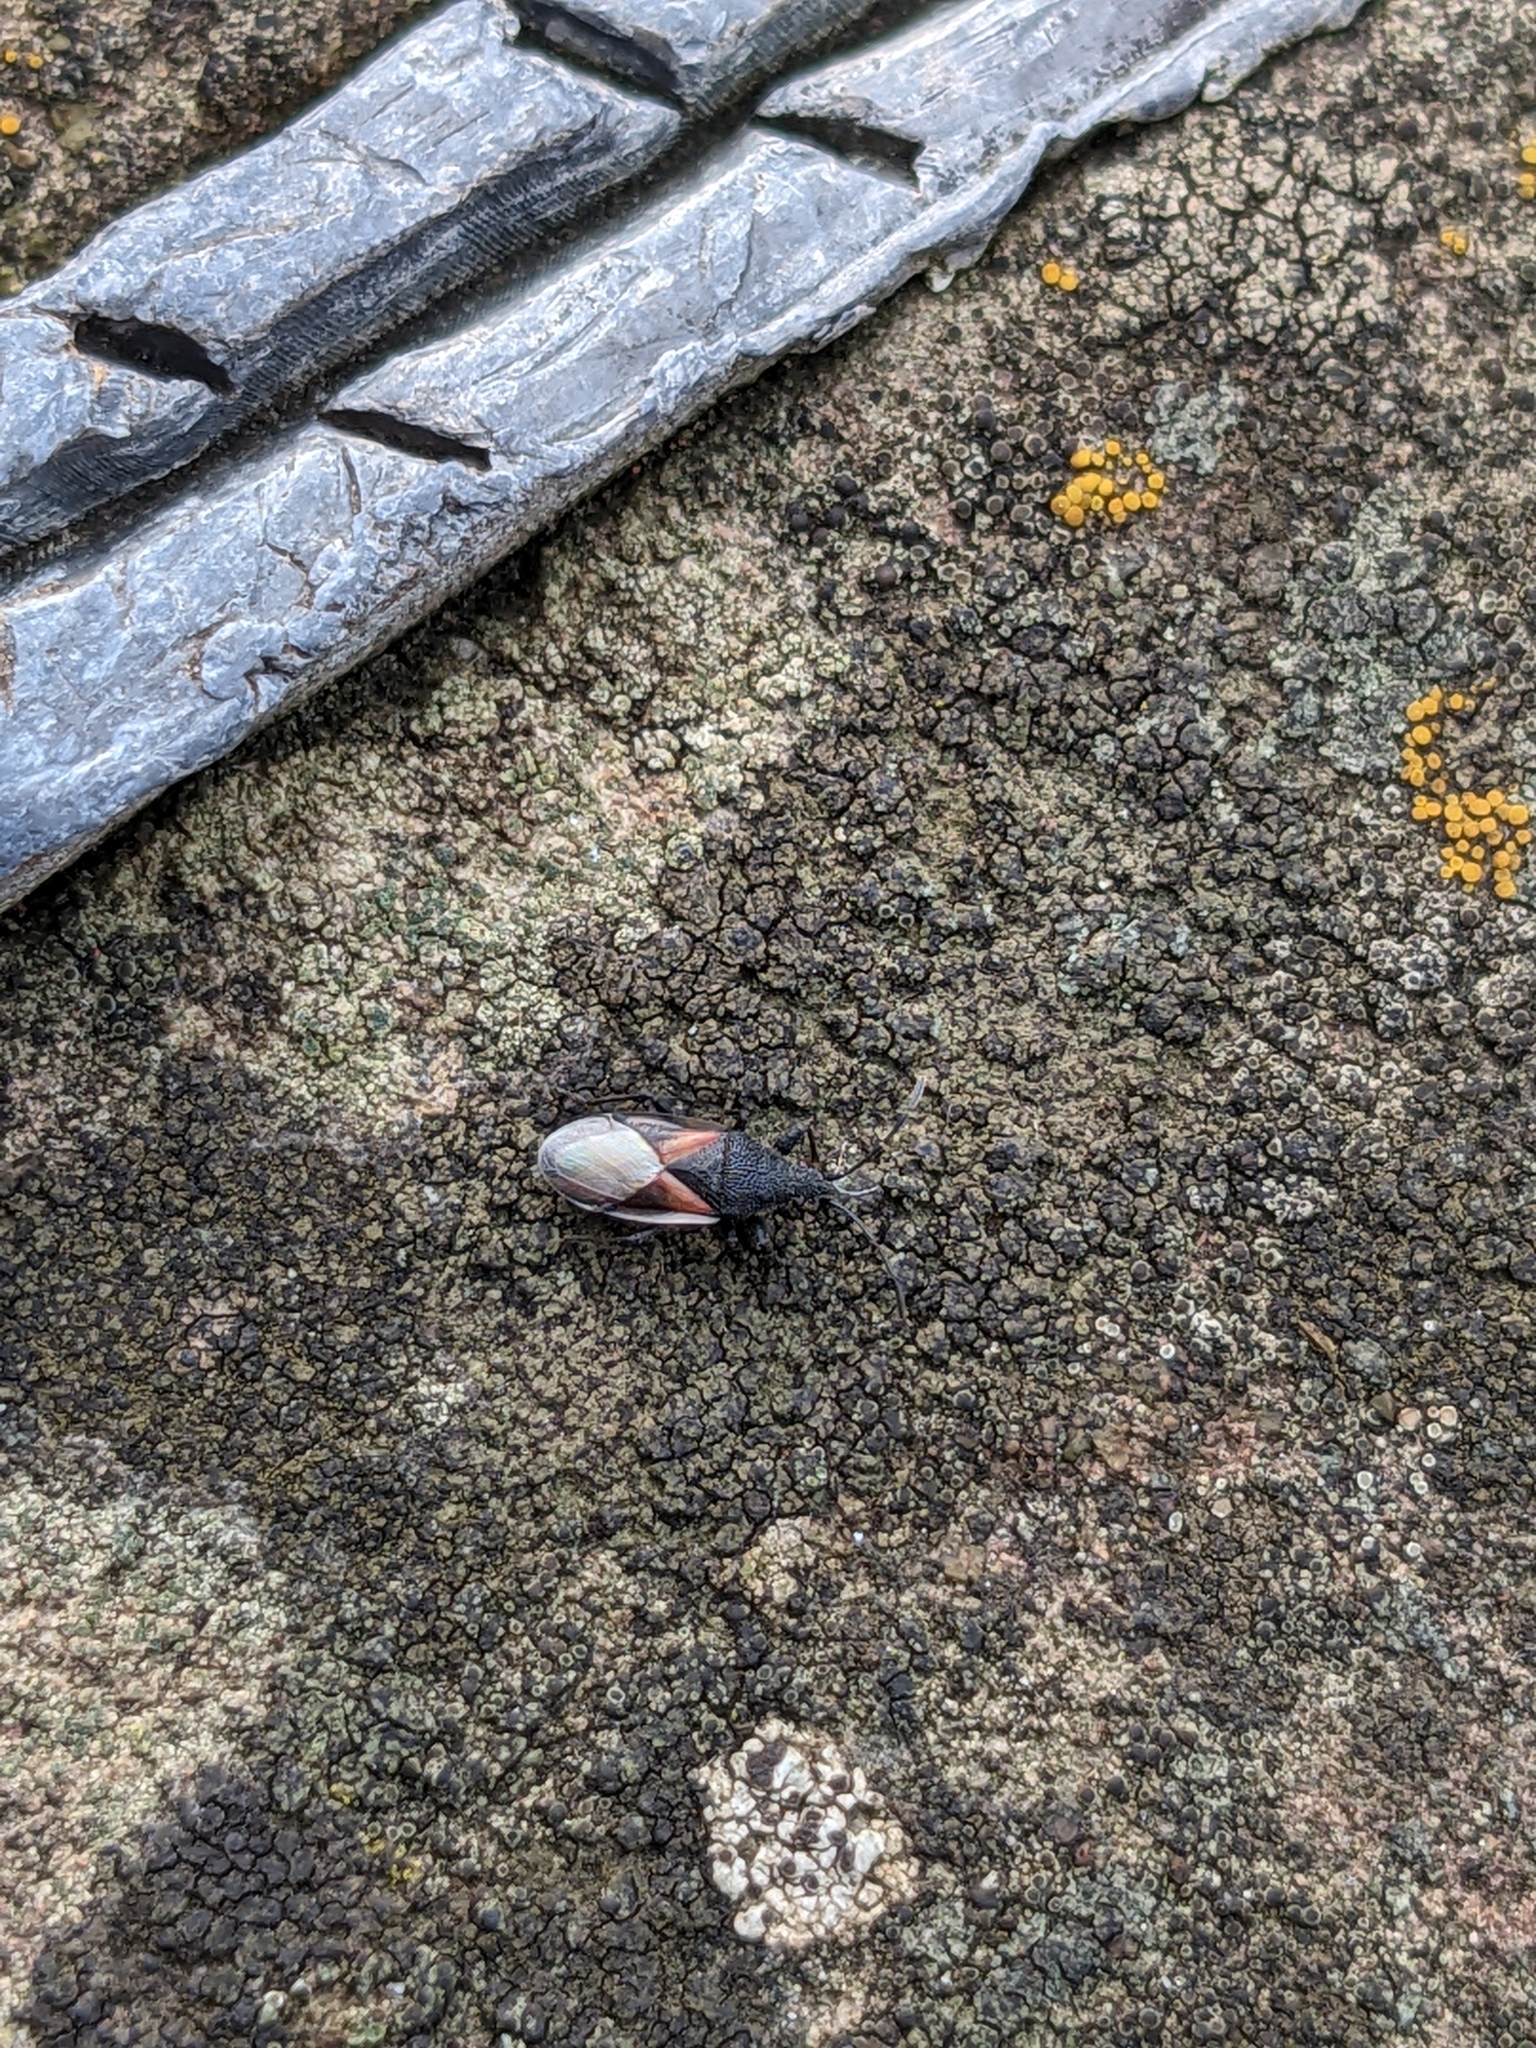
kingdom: Animalia
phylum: Arthropoda
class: Insecta
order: Hemiptera
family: Oxycarenidae
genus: Oxycarenus
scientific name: Oxycarenus lavaterae
